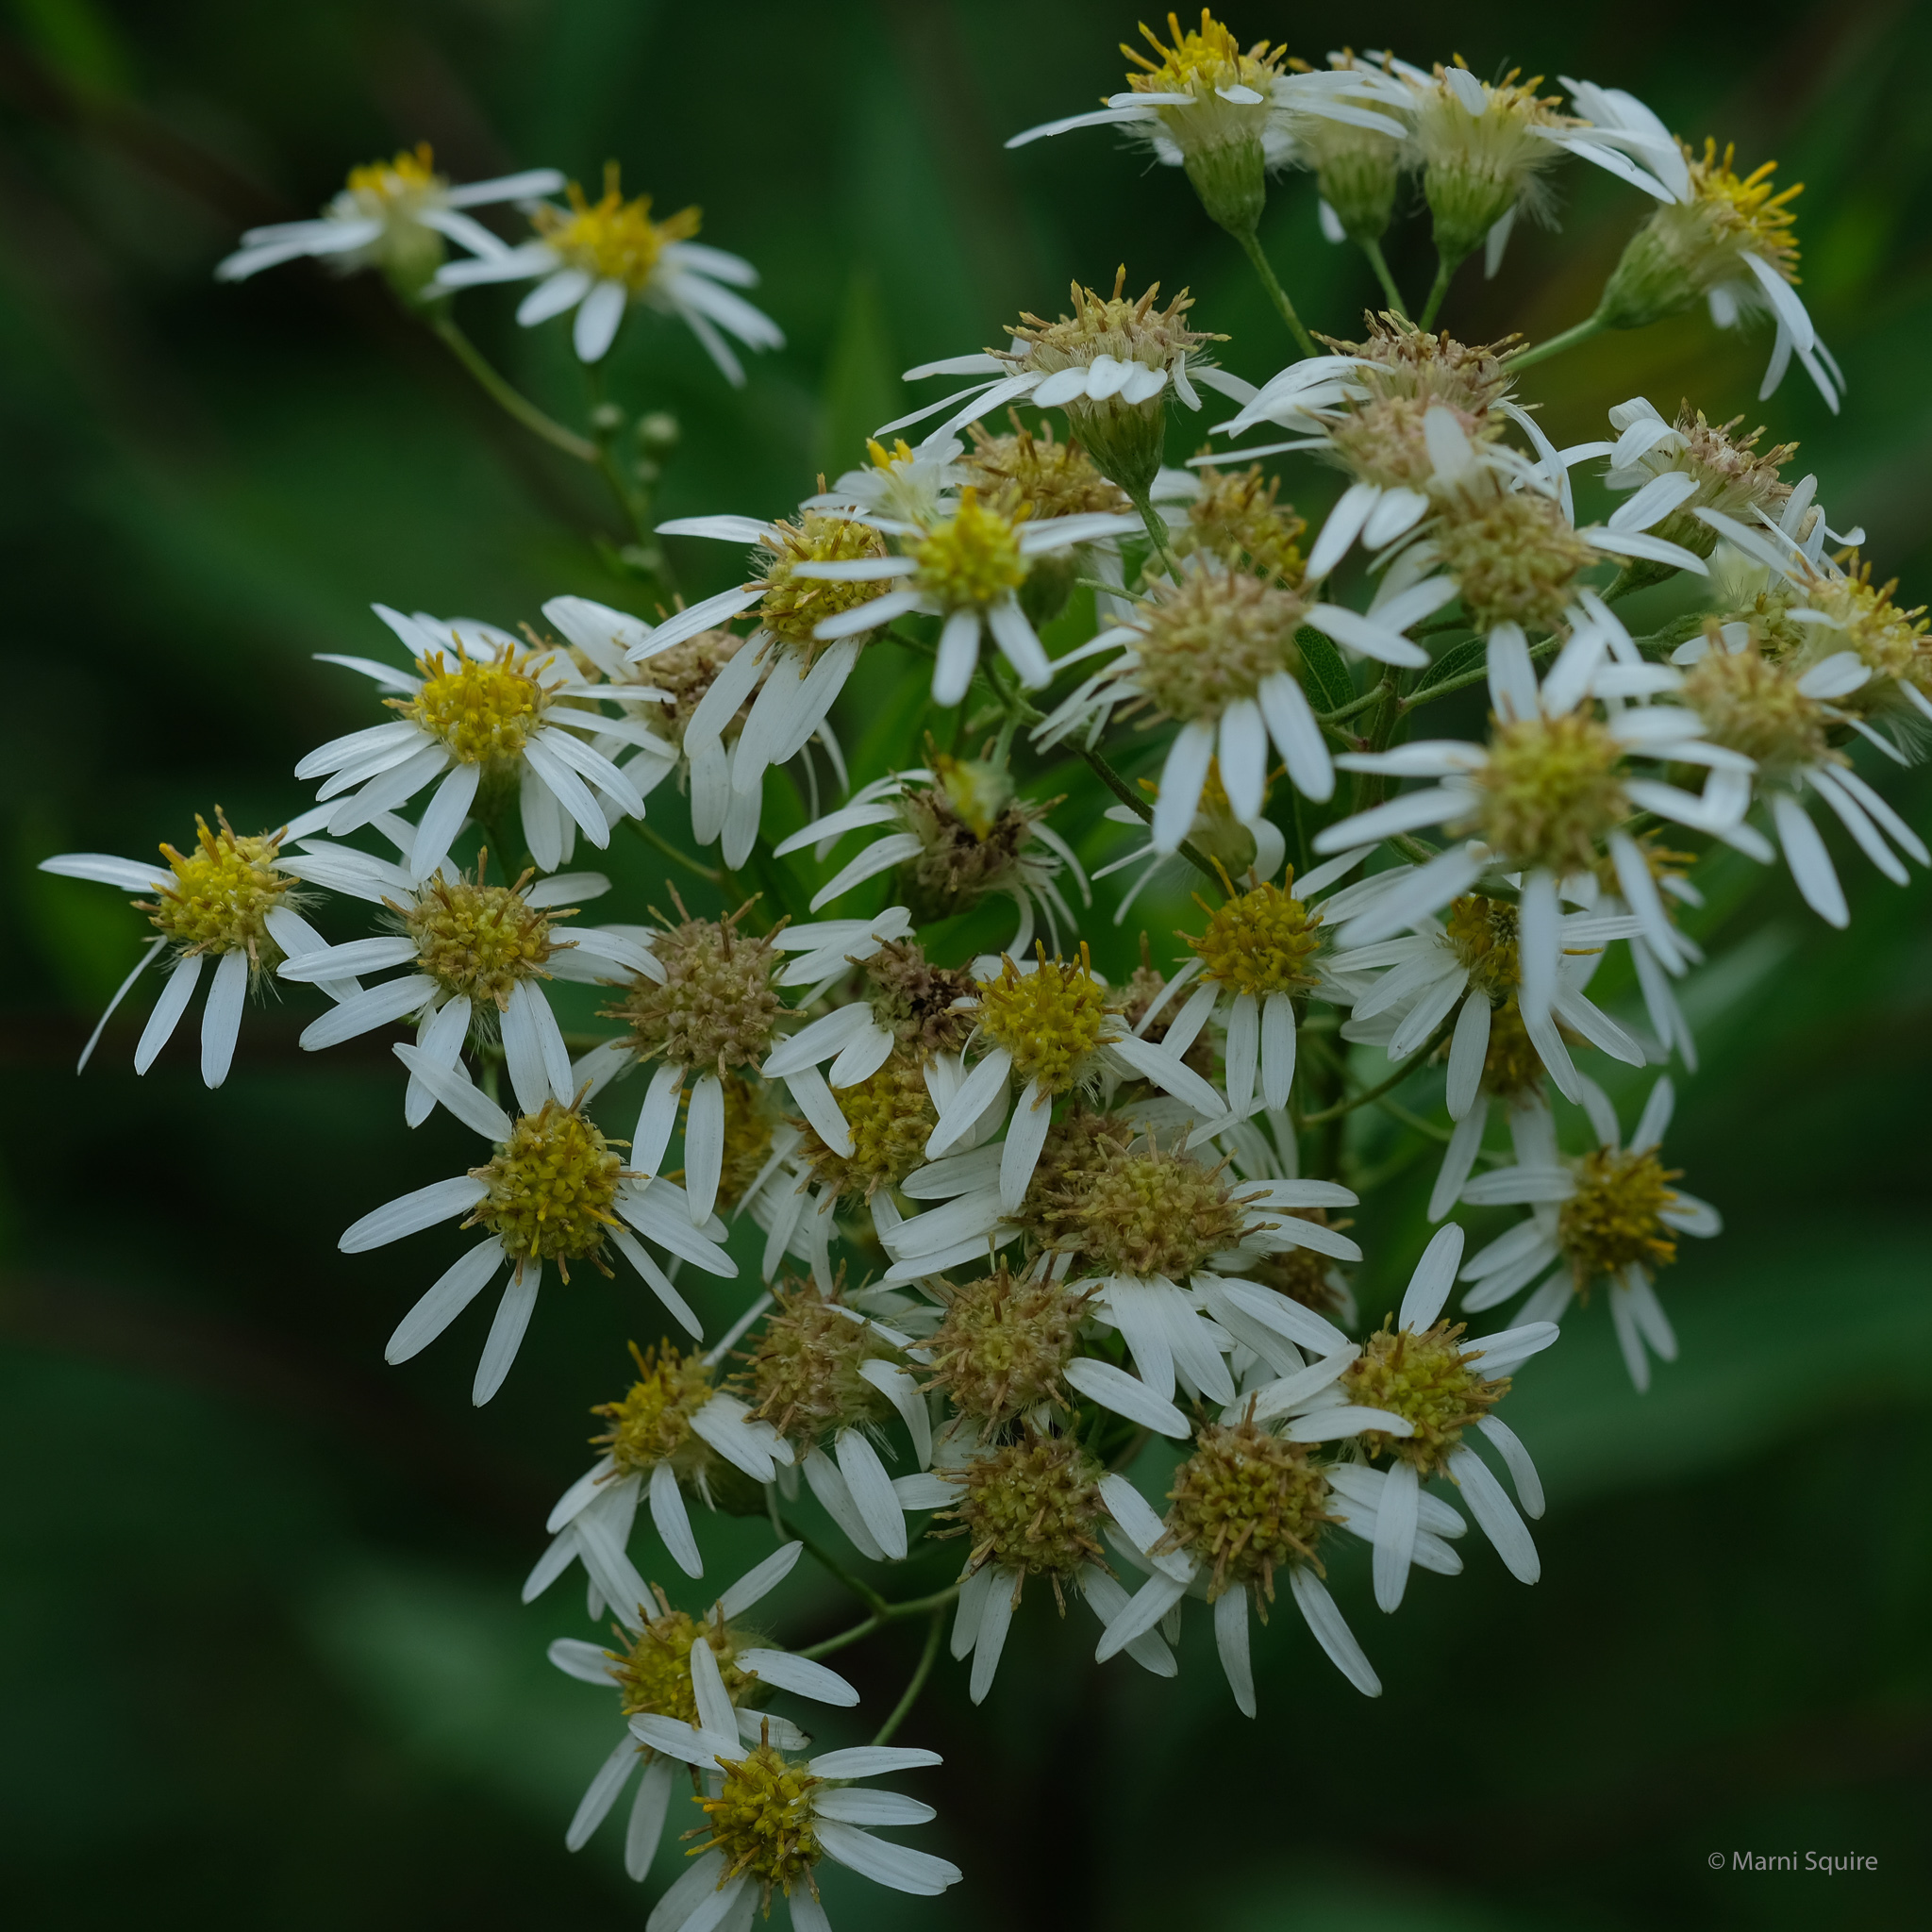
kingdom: Plantae
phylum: Tracheophyta
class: Magnoliopsida
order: Asterales
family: Asteraceae
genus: Doellingeria
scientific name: Doellingeria umbellata
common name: Flat-top white aster
